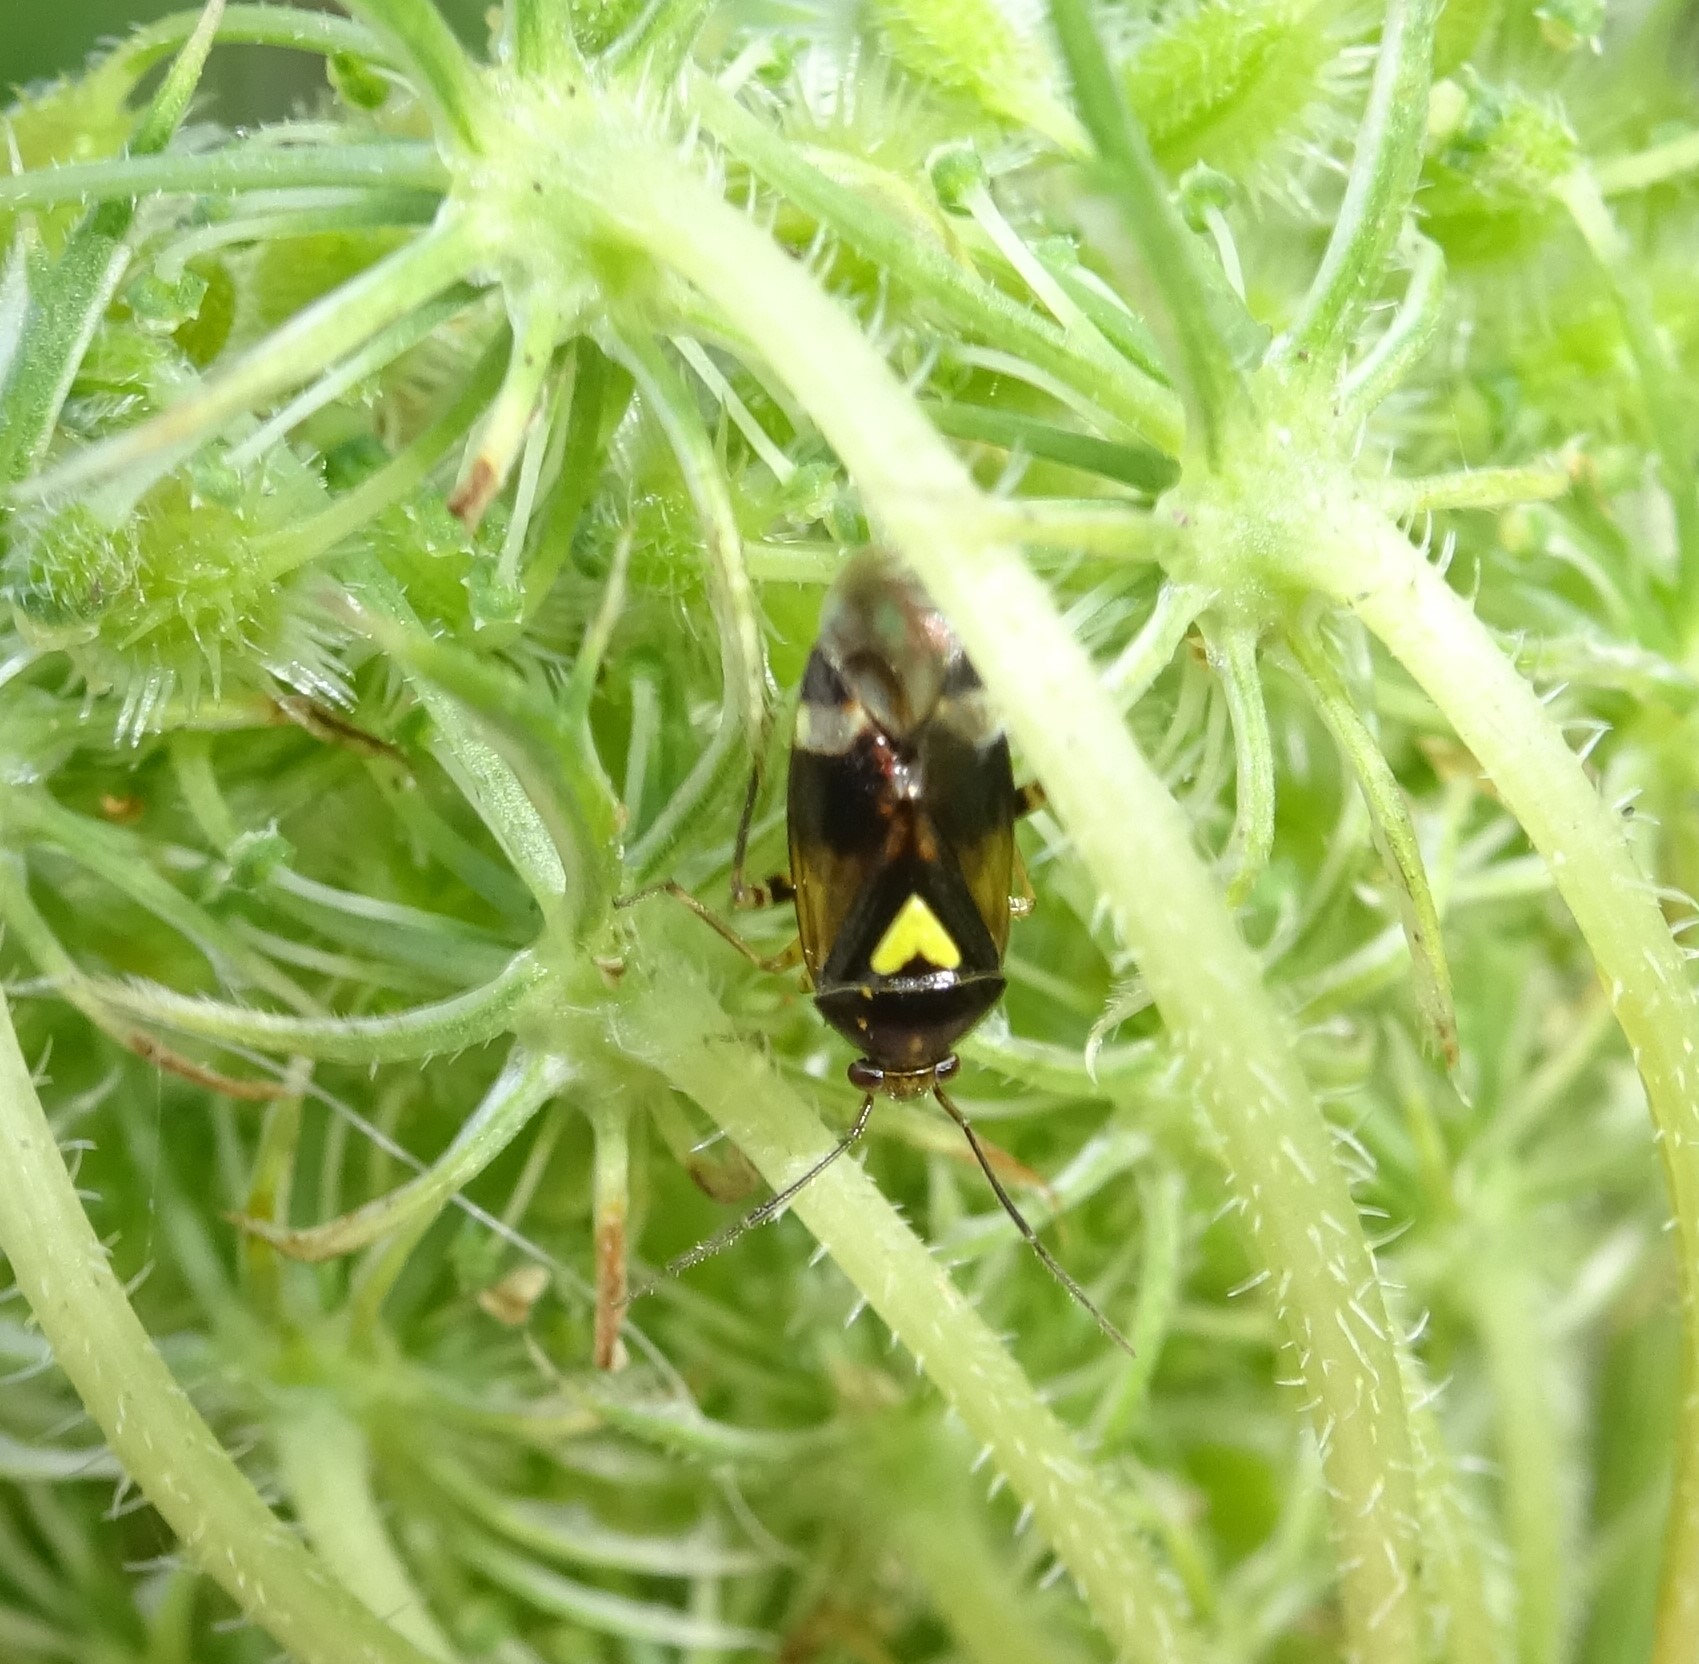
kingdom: Animalia
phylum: Arthropoda
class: Insecta
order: Hemiptera
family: Miridae
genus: Orthops
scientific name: Orthops
